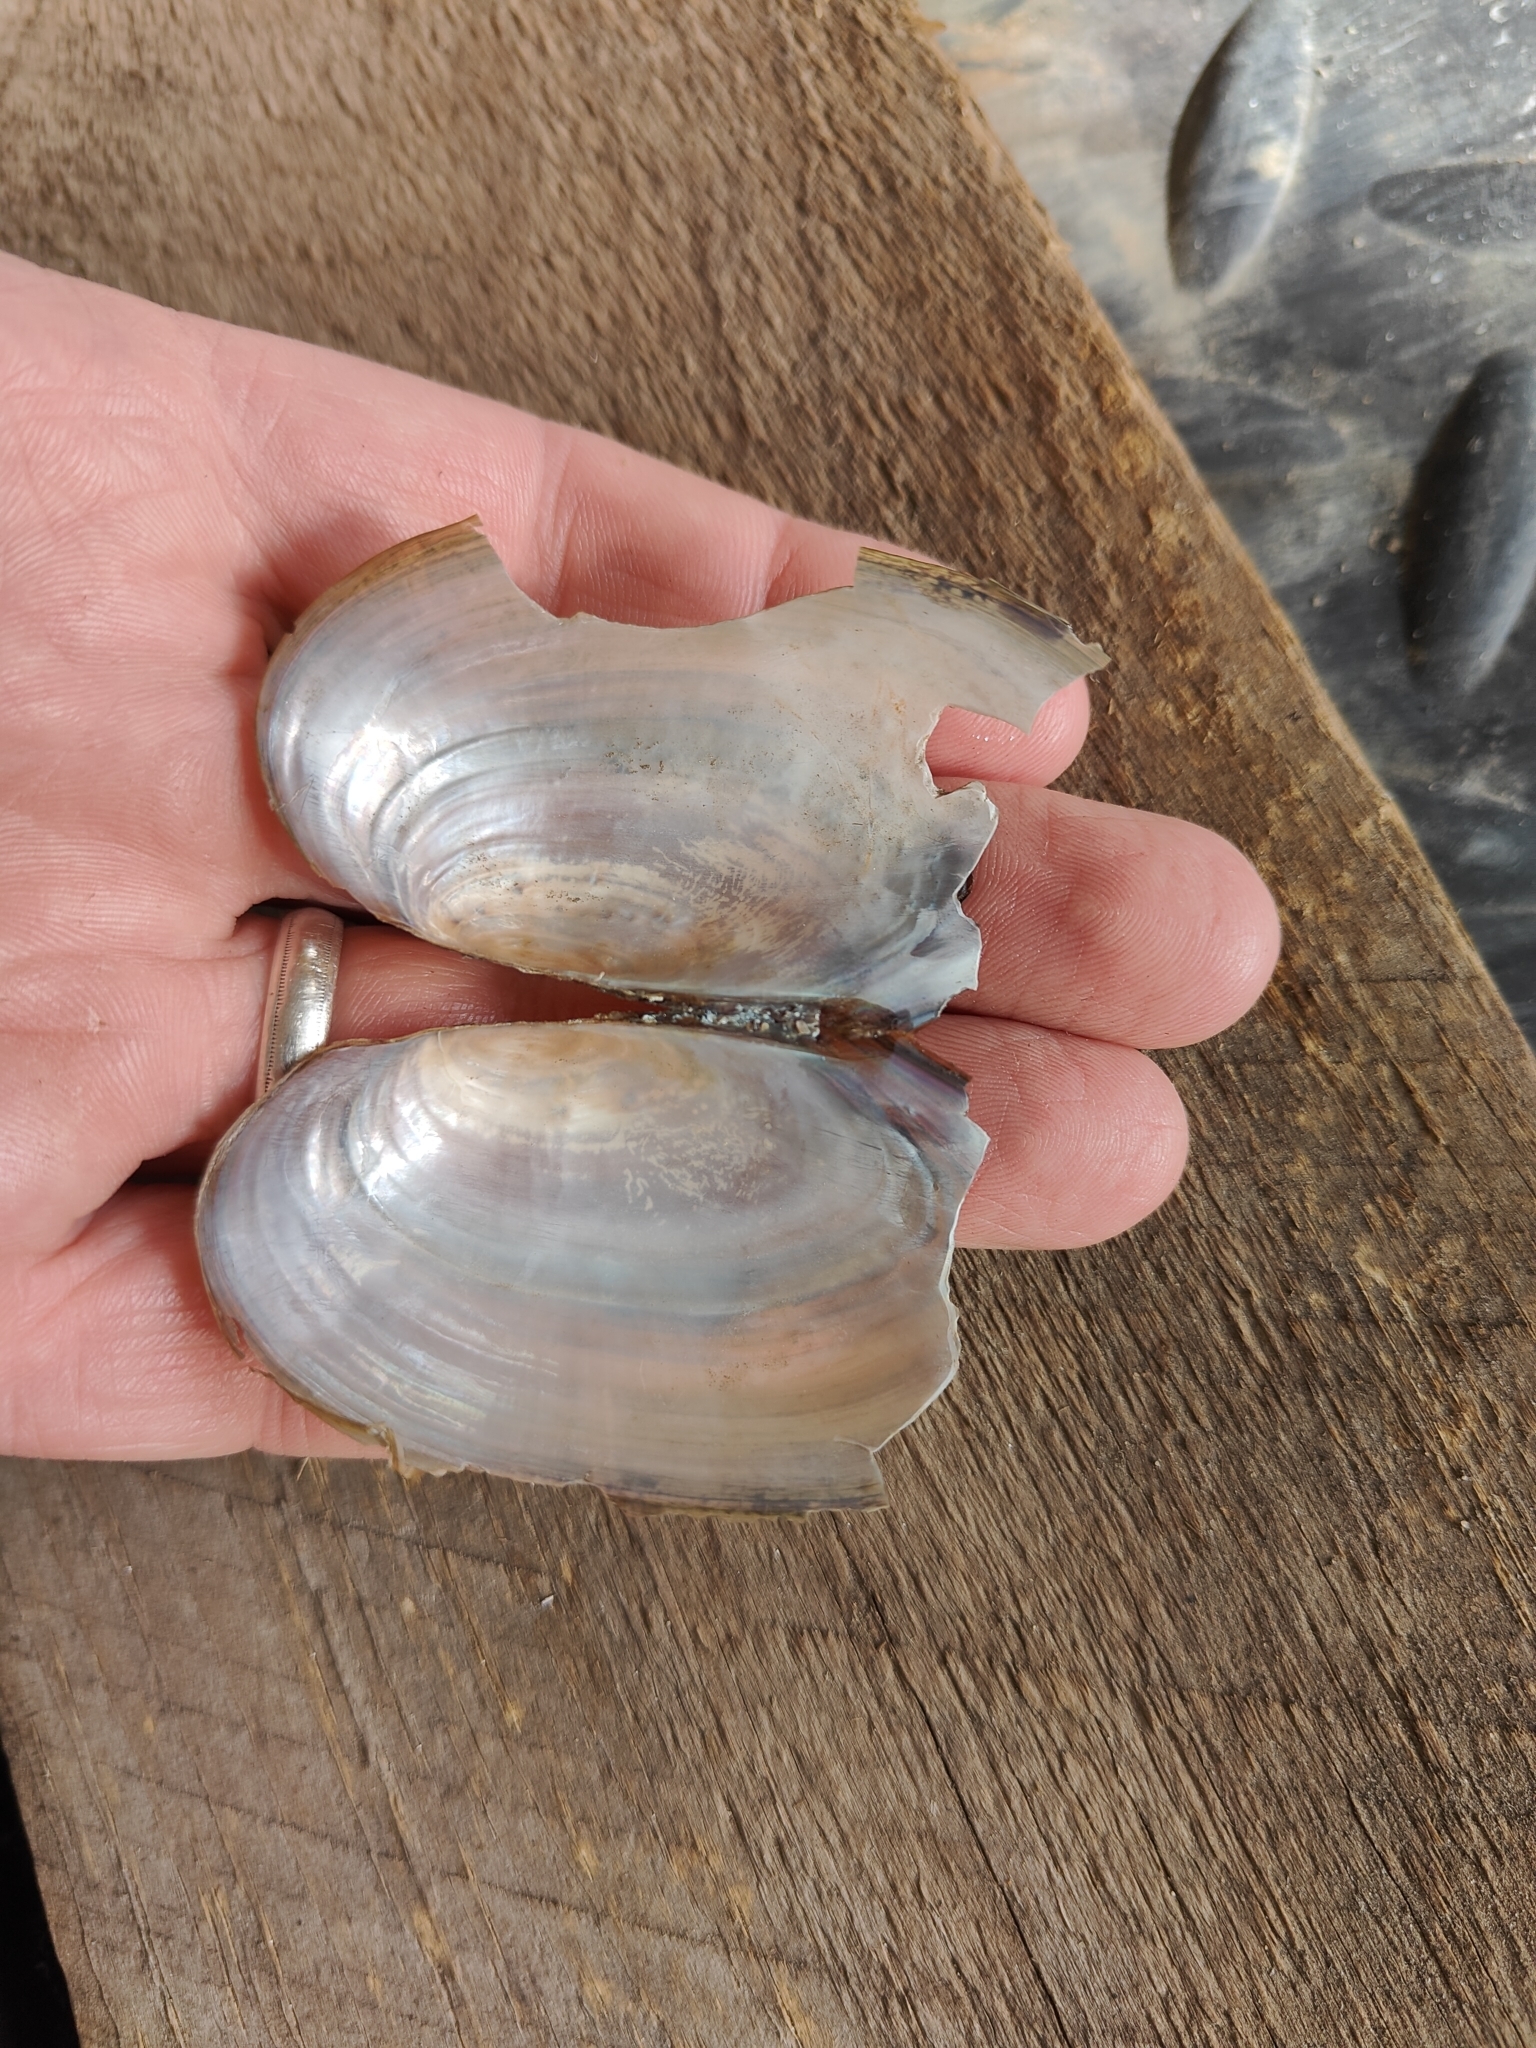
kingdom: Animalia
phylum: Mollusca
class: Bivalvia
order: Unionida
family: Unionidae
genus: Utterbackia
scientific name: Utterbackia imbecillis
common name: Paper pondshell
